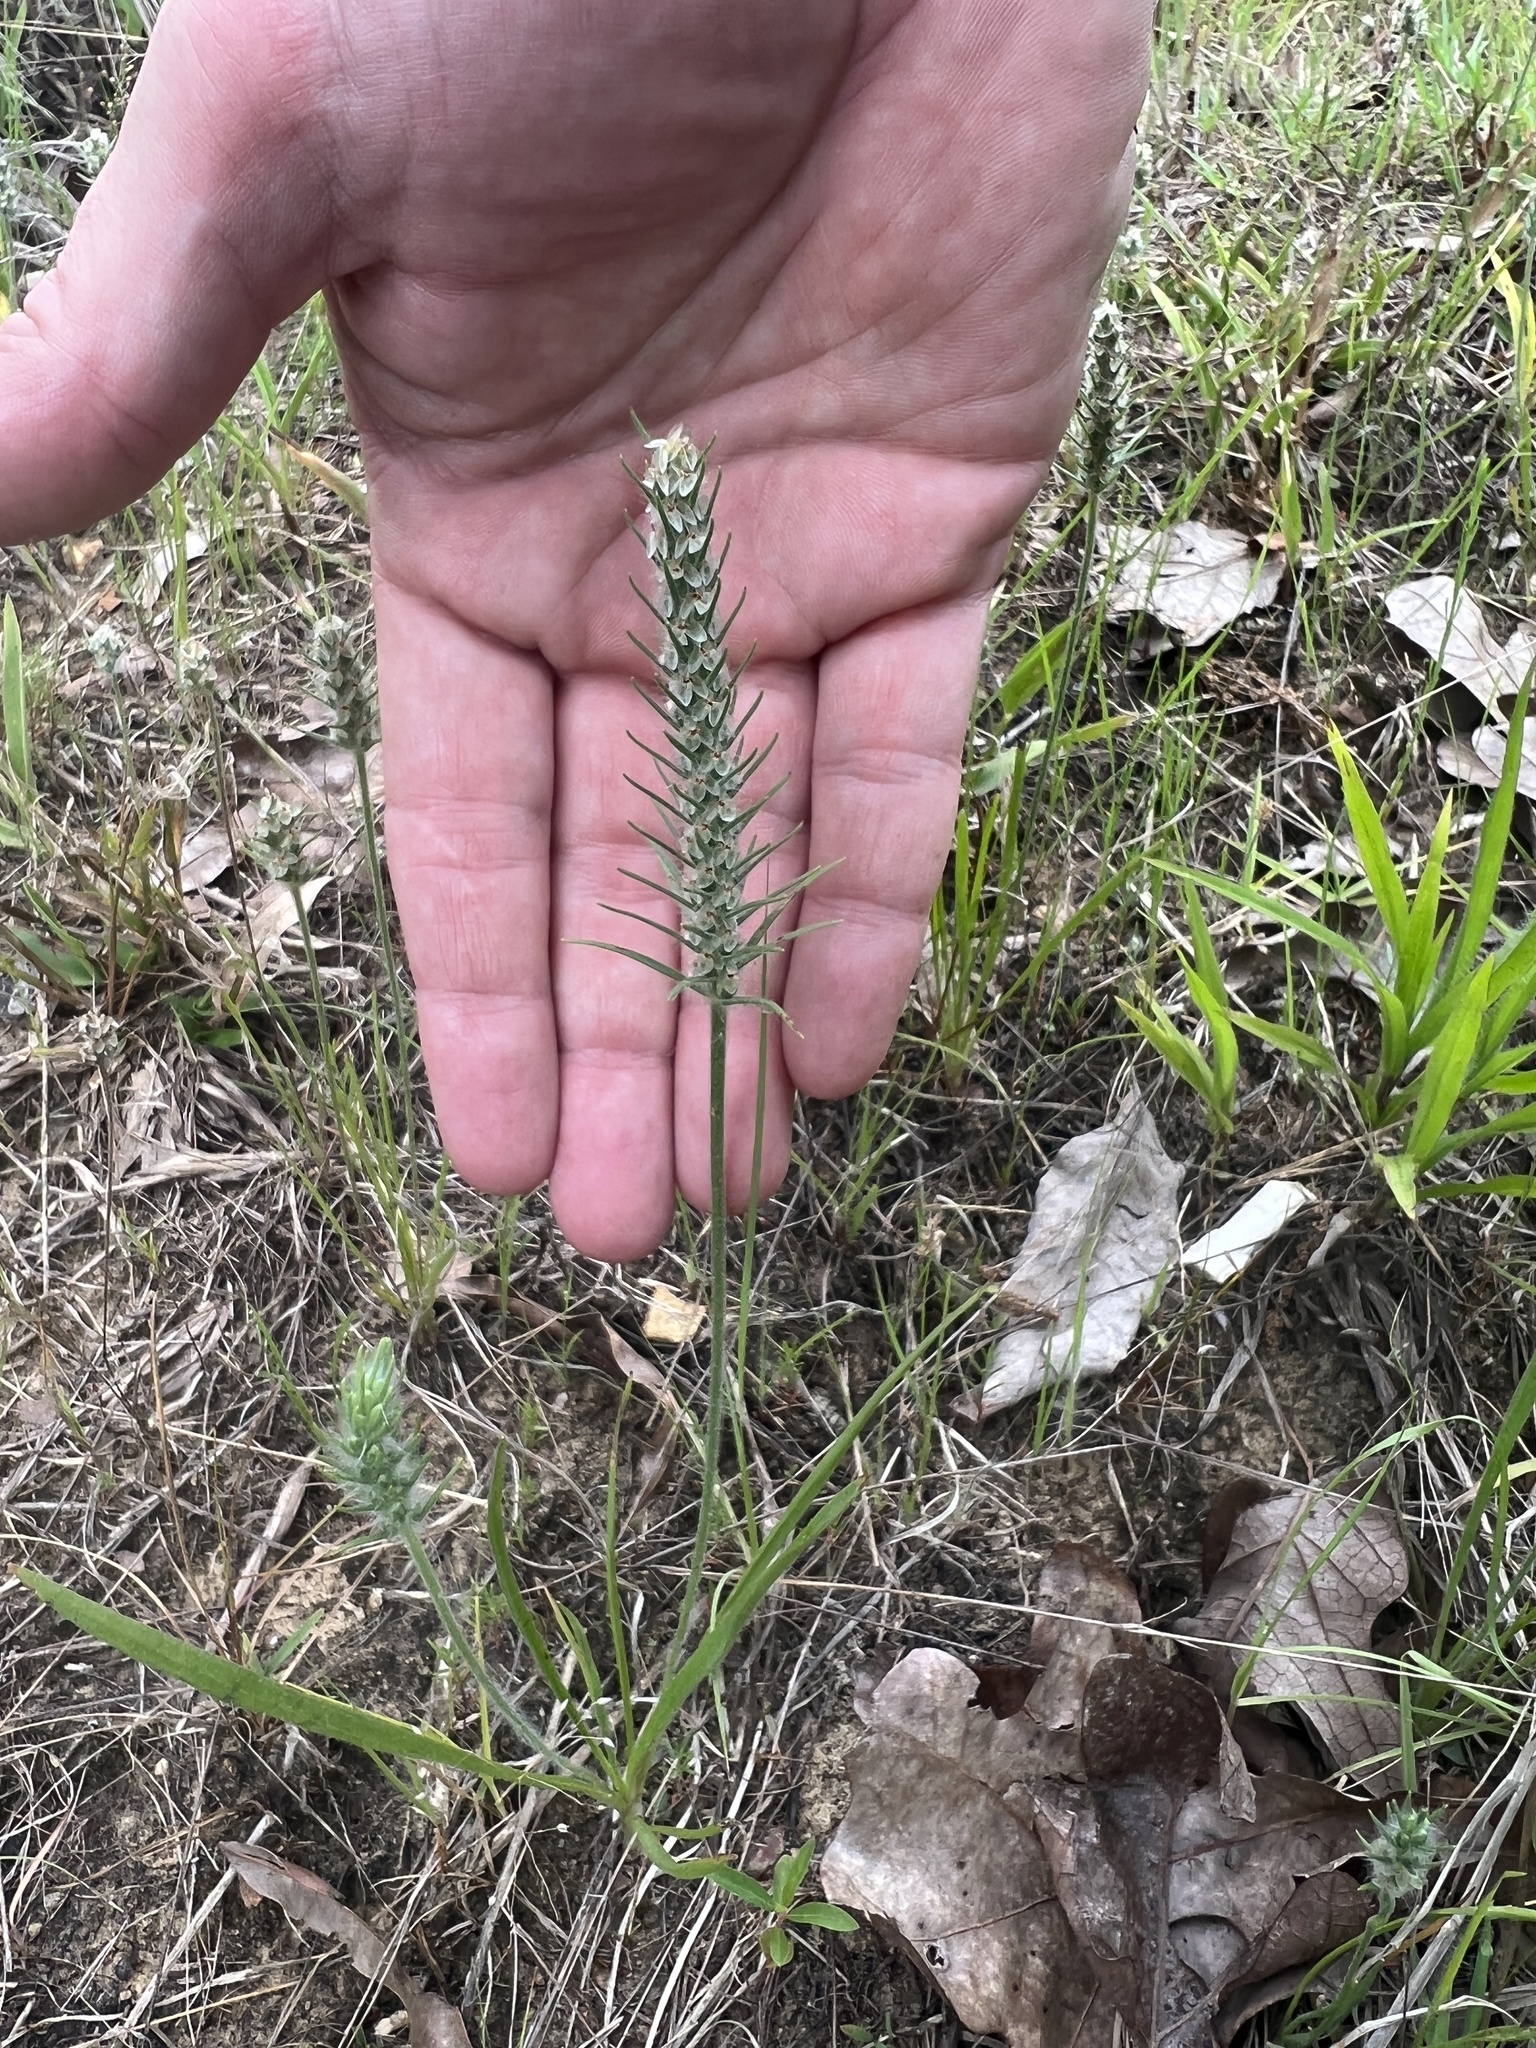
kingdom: Plantae
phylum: Tracheophyta
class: Magnoliopsida
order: Lamiales
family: Plantaginaceae
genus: Plantago
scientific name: Plantago aristata
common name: Bracted plantain
